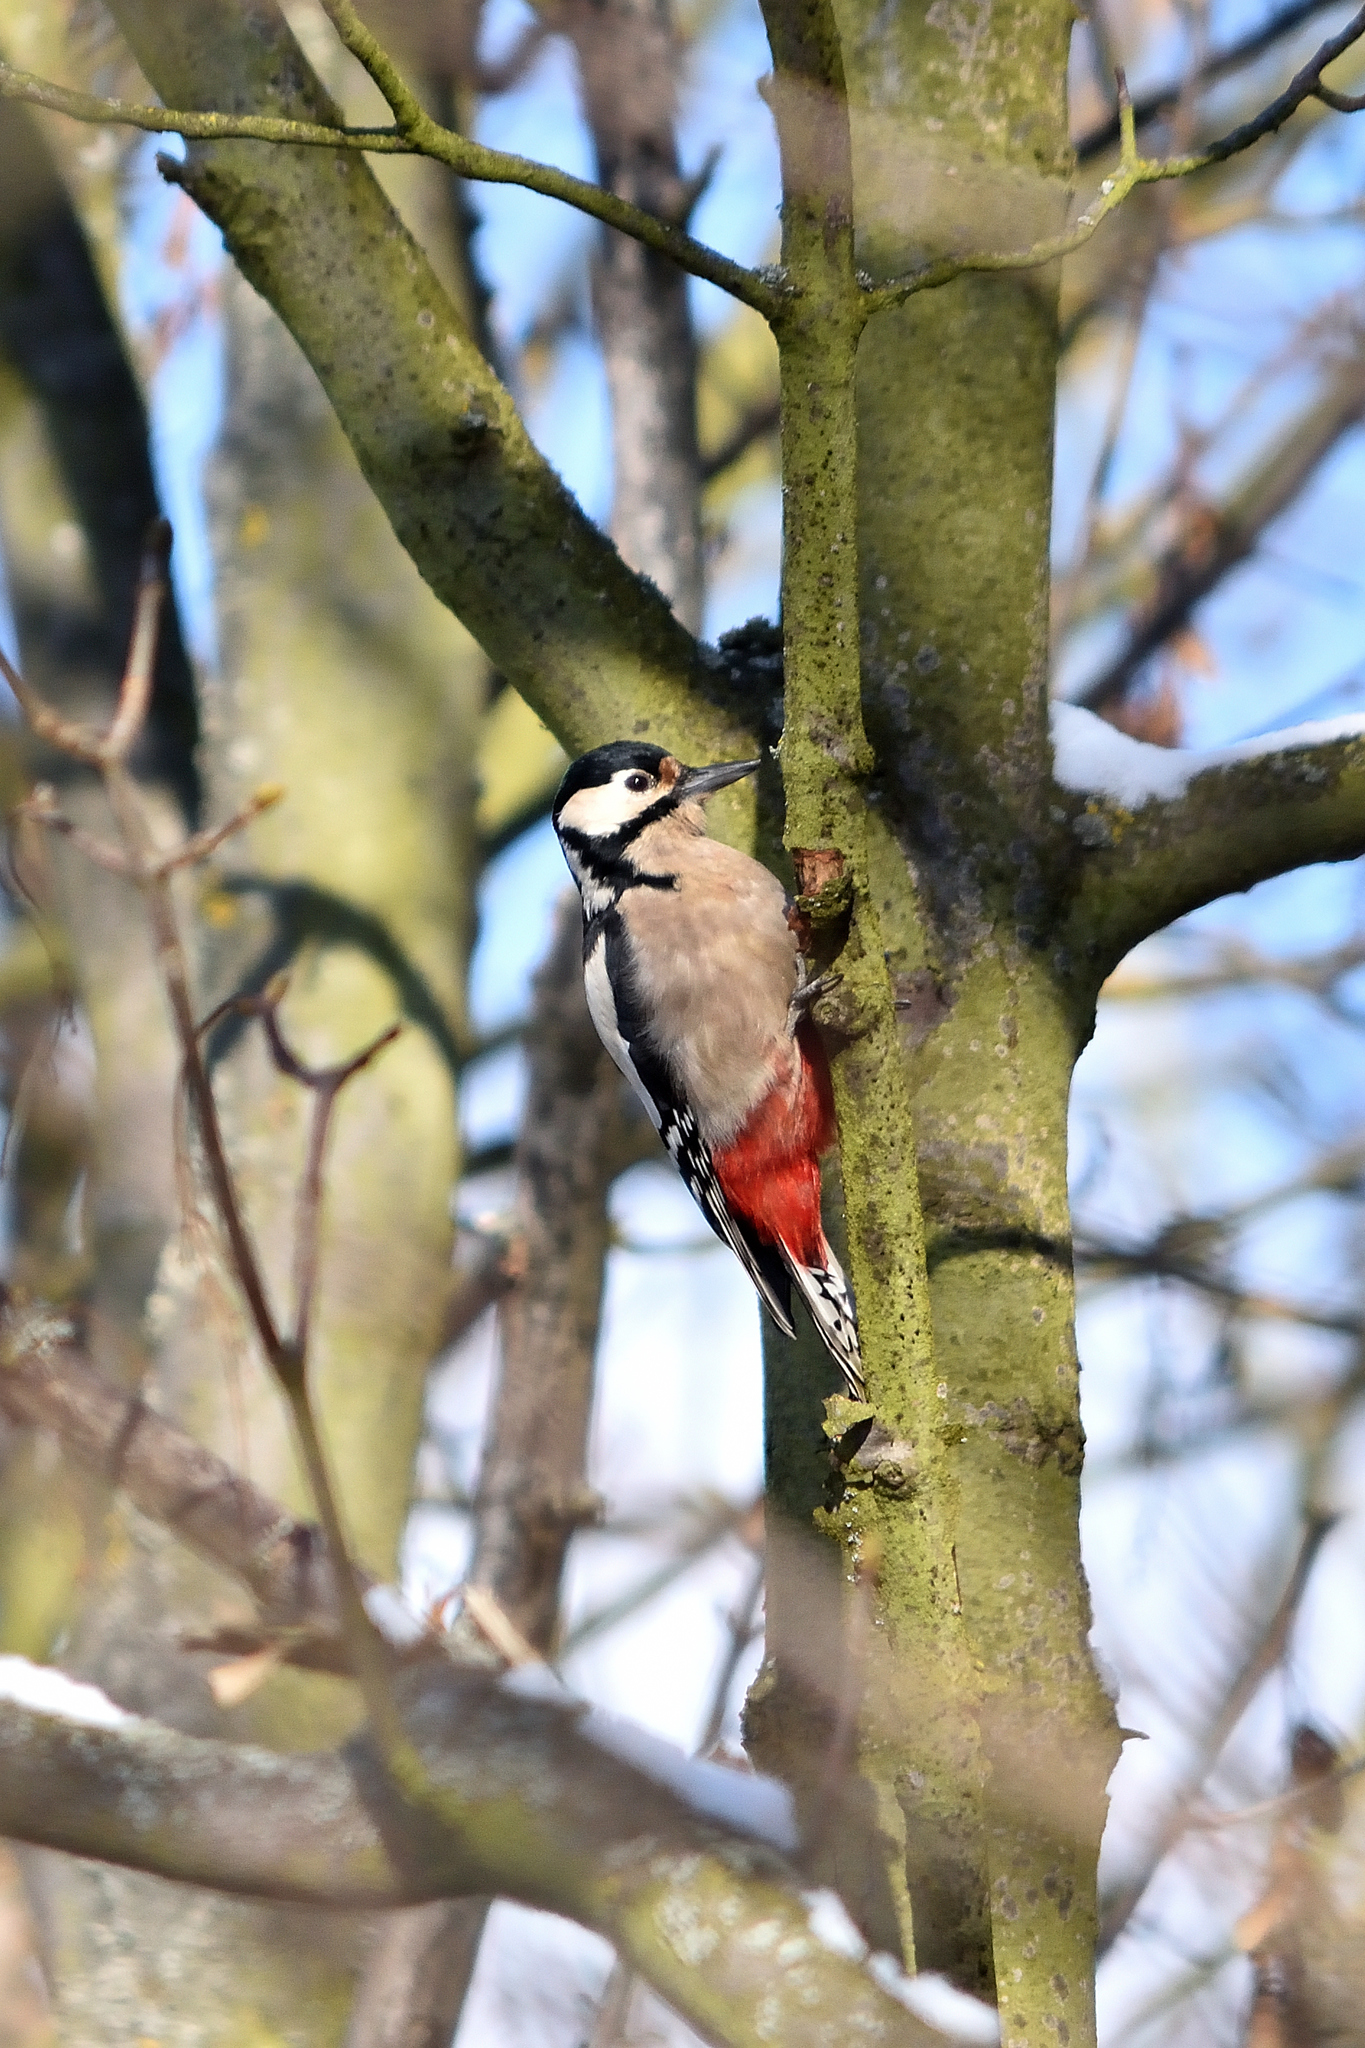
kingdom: Animalia
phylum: Chordata
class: Aves
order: Piciformes
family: Picidae
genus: Dendrocopos
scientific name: Dendrocopos major
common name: Great spotted woodpecker
